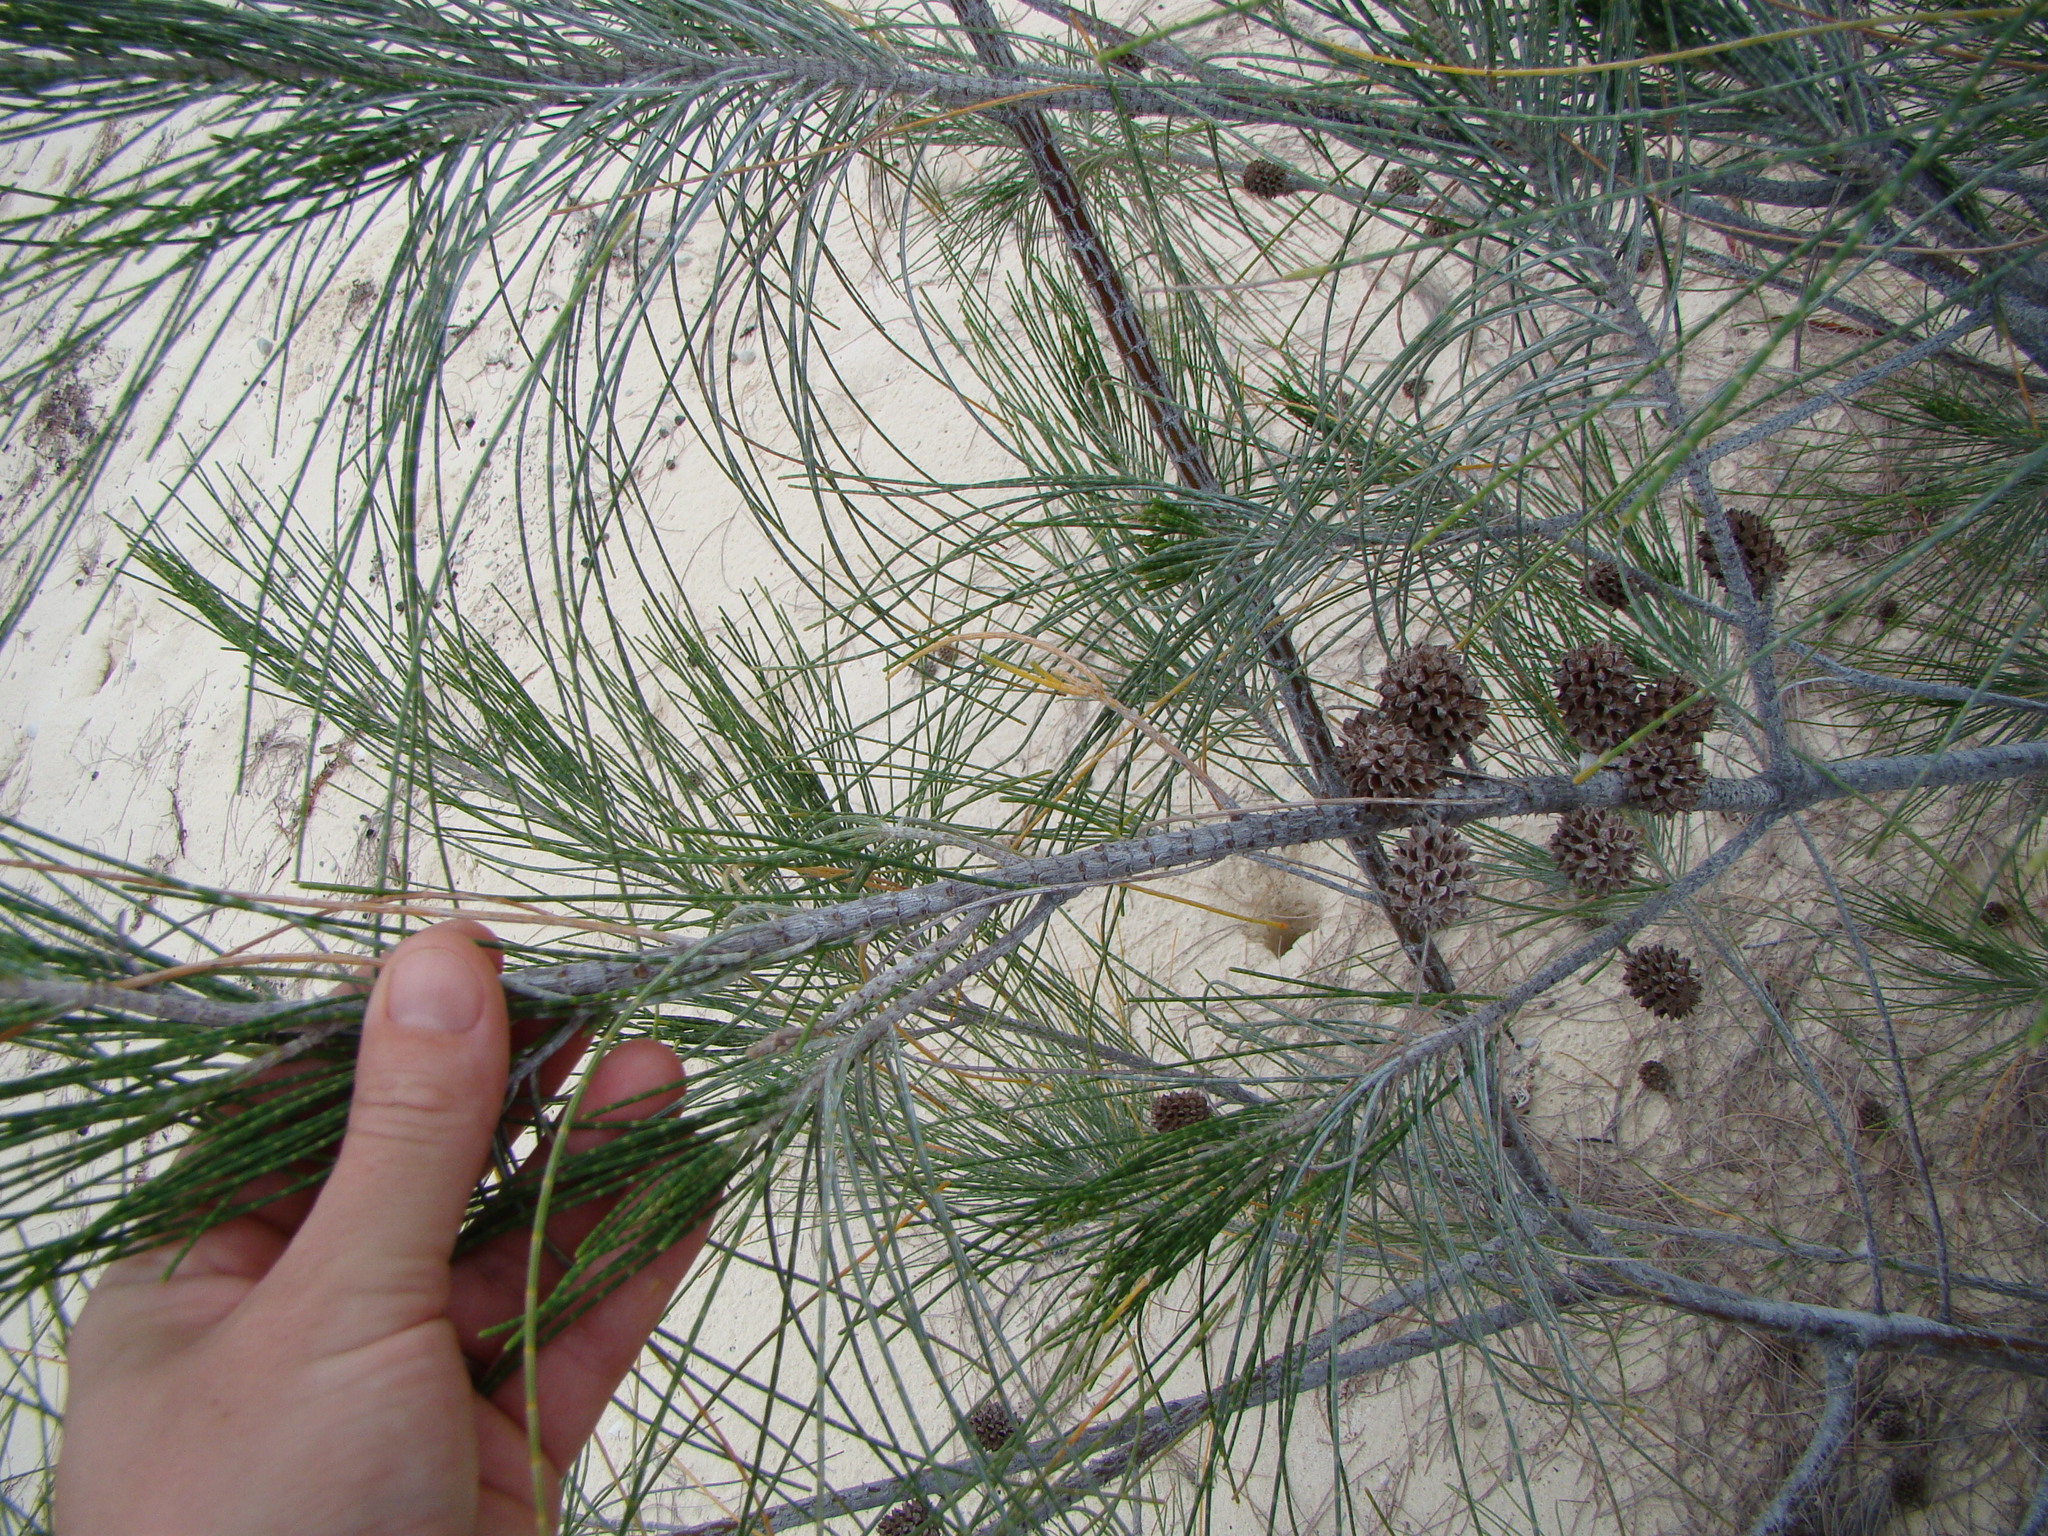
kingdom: Plantae
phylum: Tracheophyta
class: Magnoliopsida
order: Fagales
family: Casuarinaceae
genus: Casuarina
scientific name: Casuarina equisetifolia
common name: Beach sheoak
